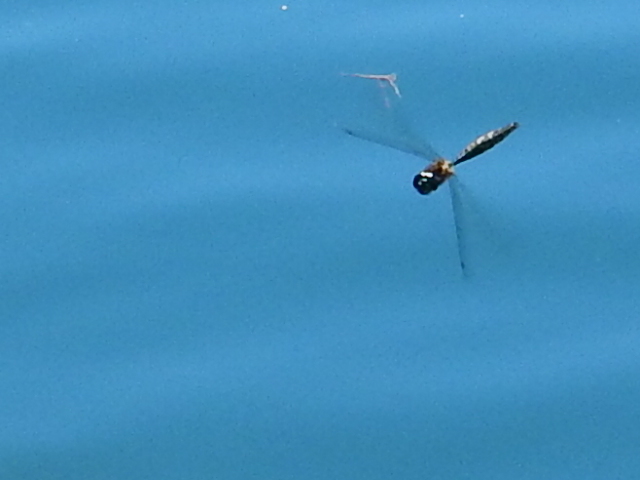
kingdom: Animalia
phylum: Arthropoda
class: Insecta
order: Odonata
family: Corduliidae
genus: Hemicordulia
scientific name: Hemicordulia armstrongi
